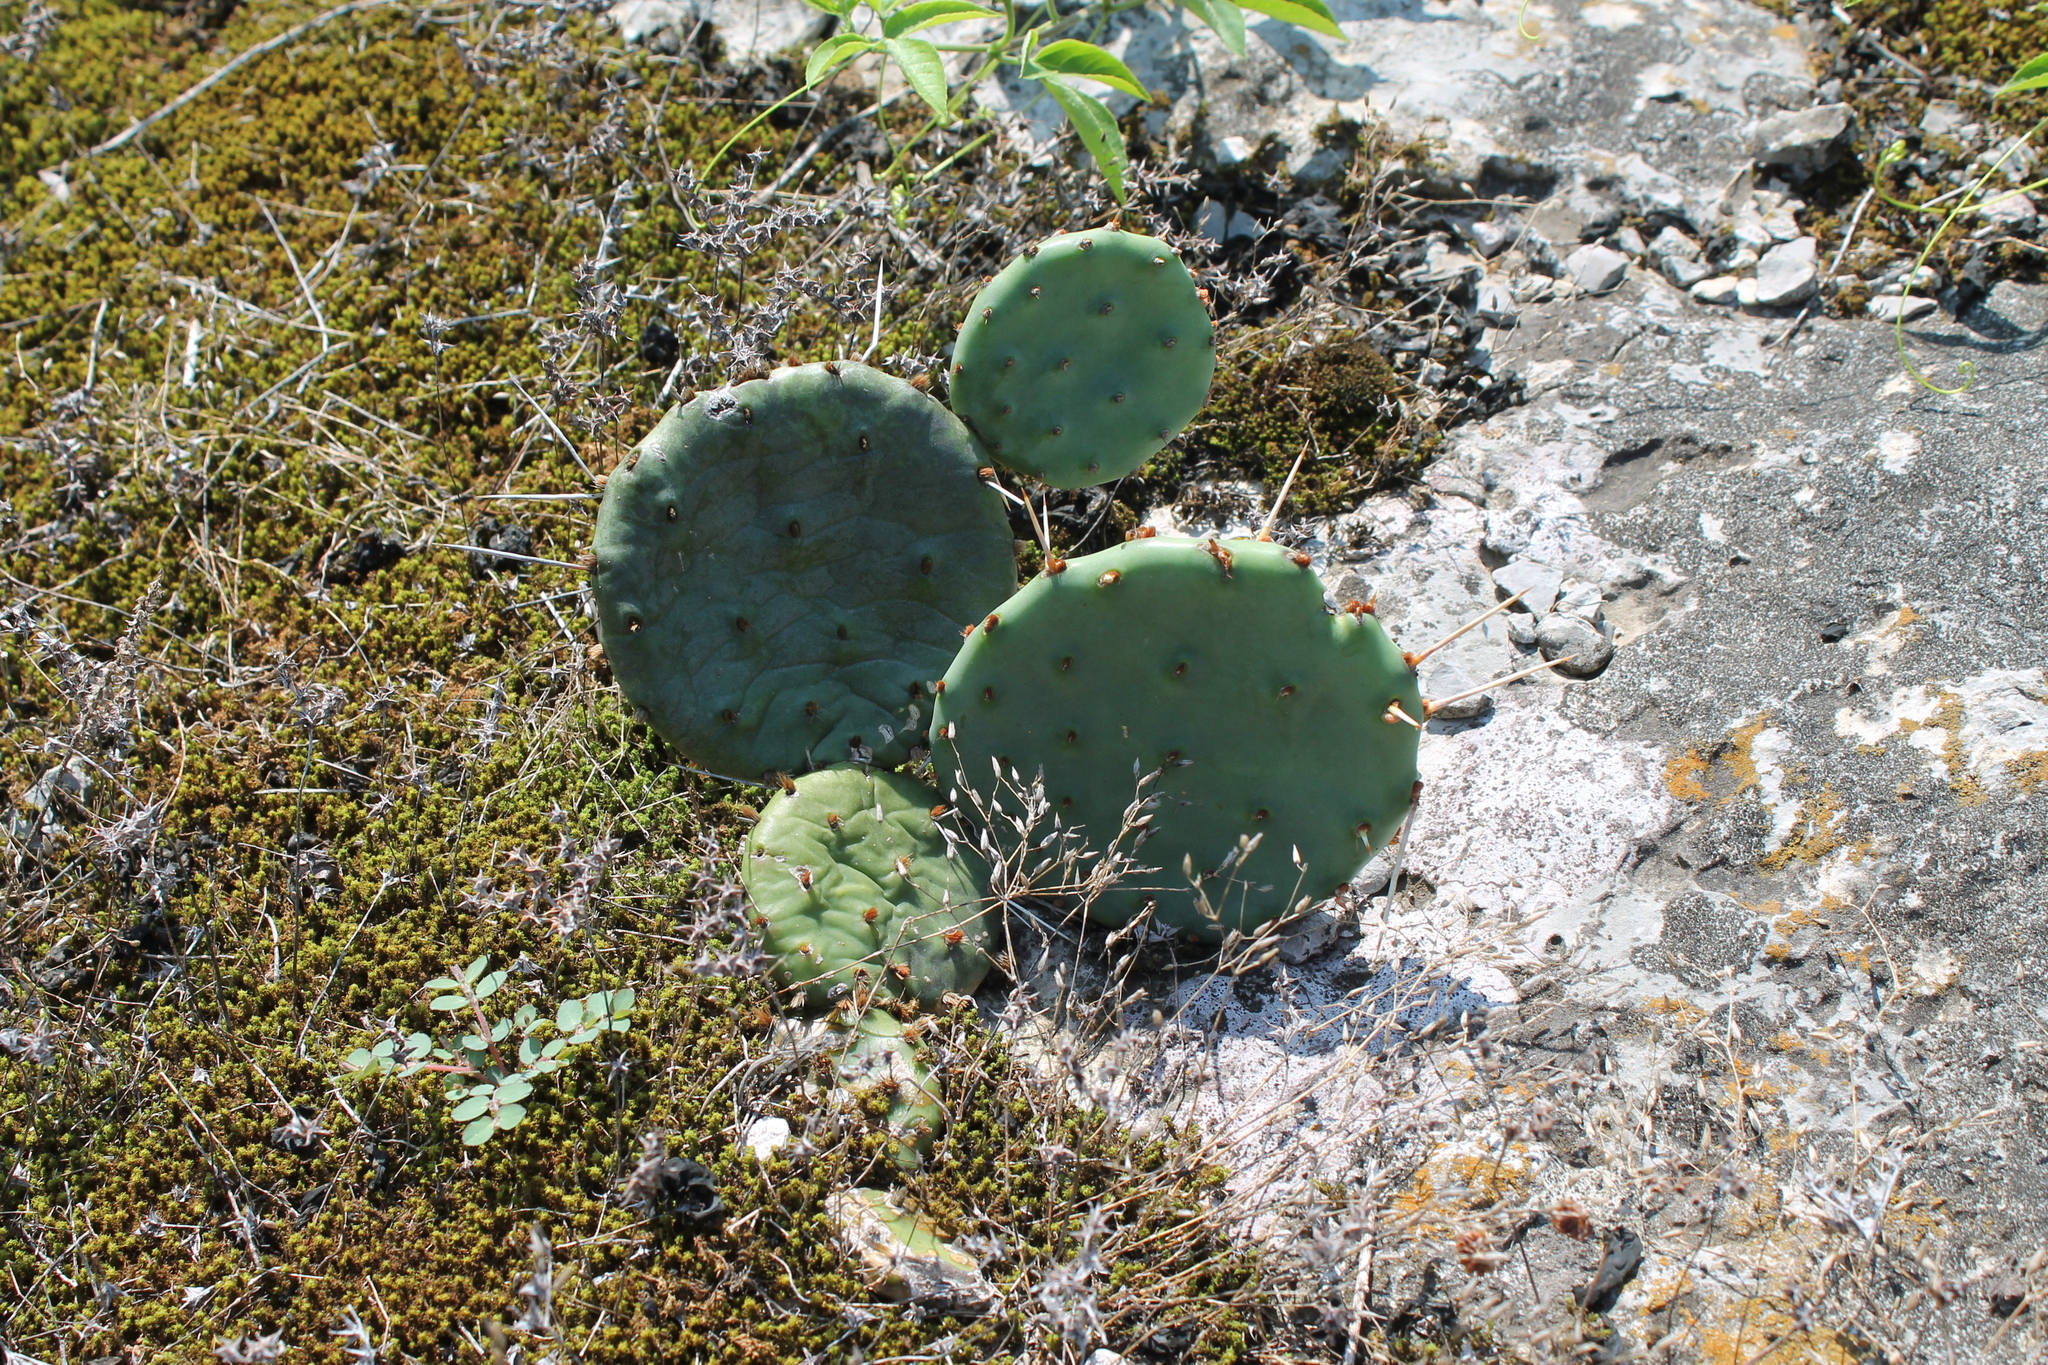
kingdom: Plantae
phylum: Tracheophyta
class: Magnoliopsida
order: Caryophyllales
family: Cactaceae
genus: Opuntia
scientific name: Opuntia humifusa
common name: Eastern prickly-pear
